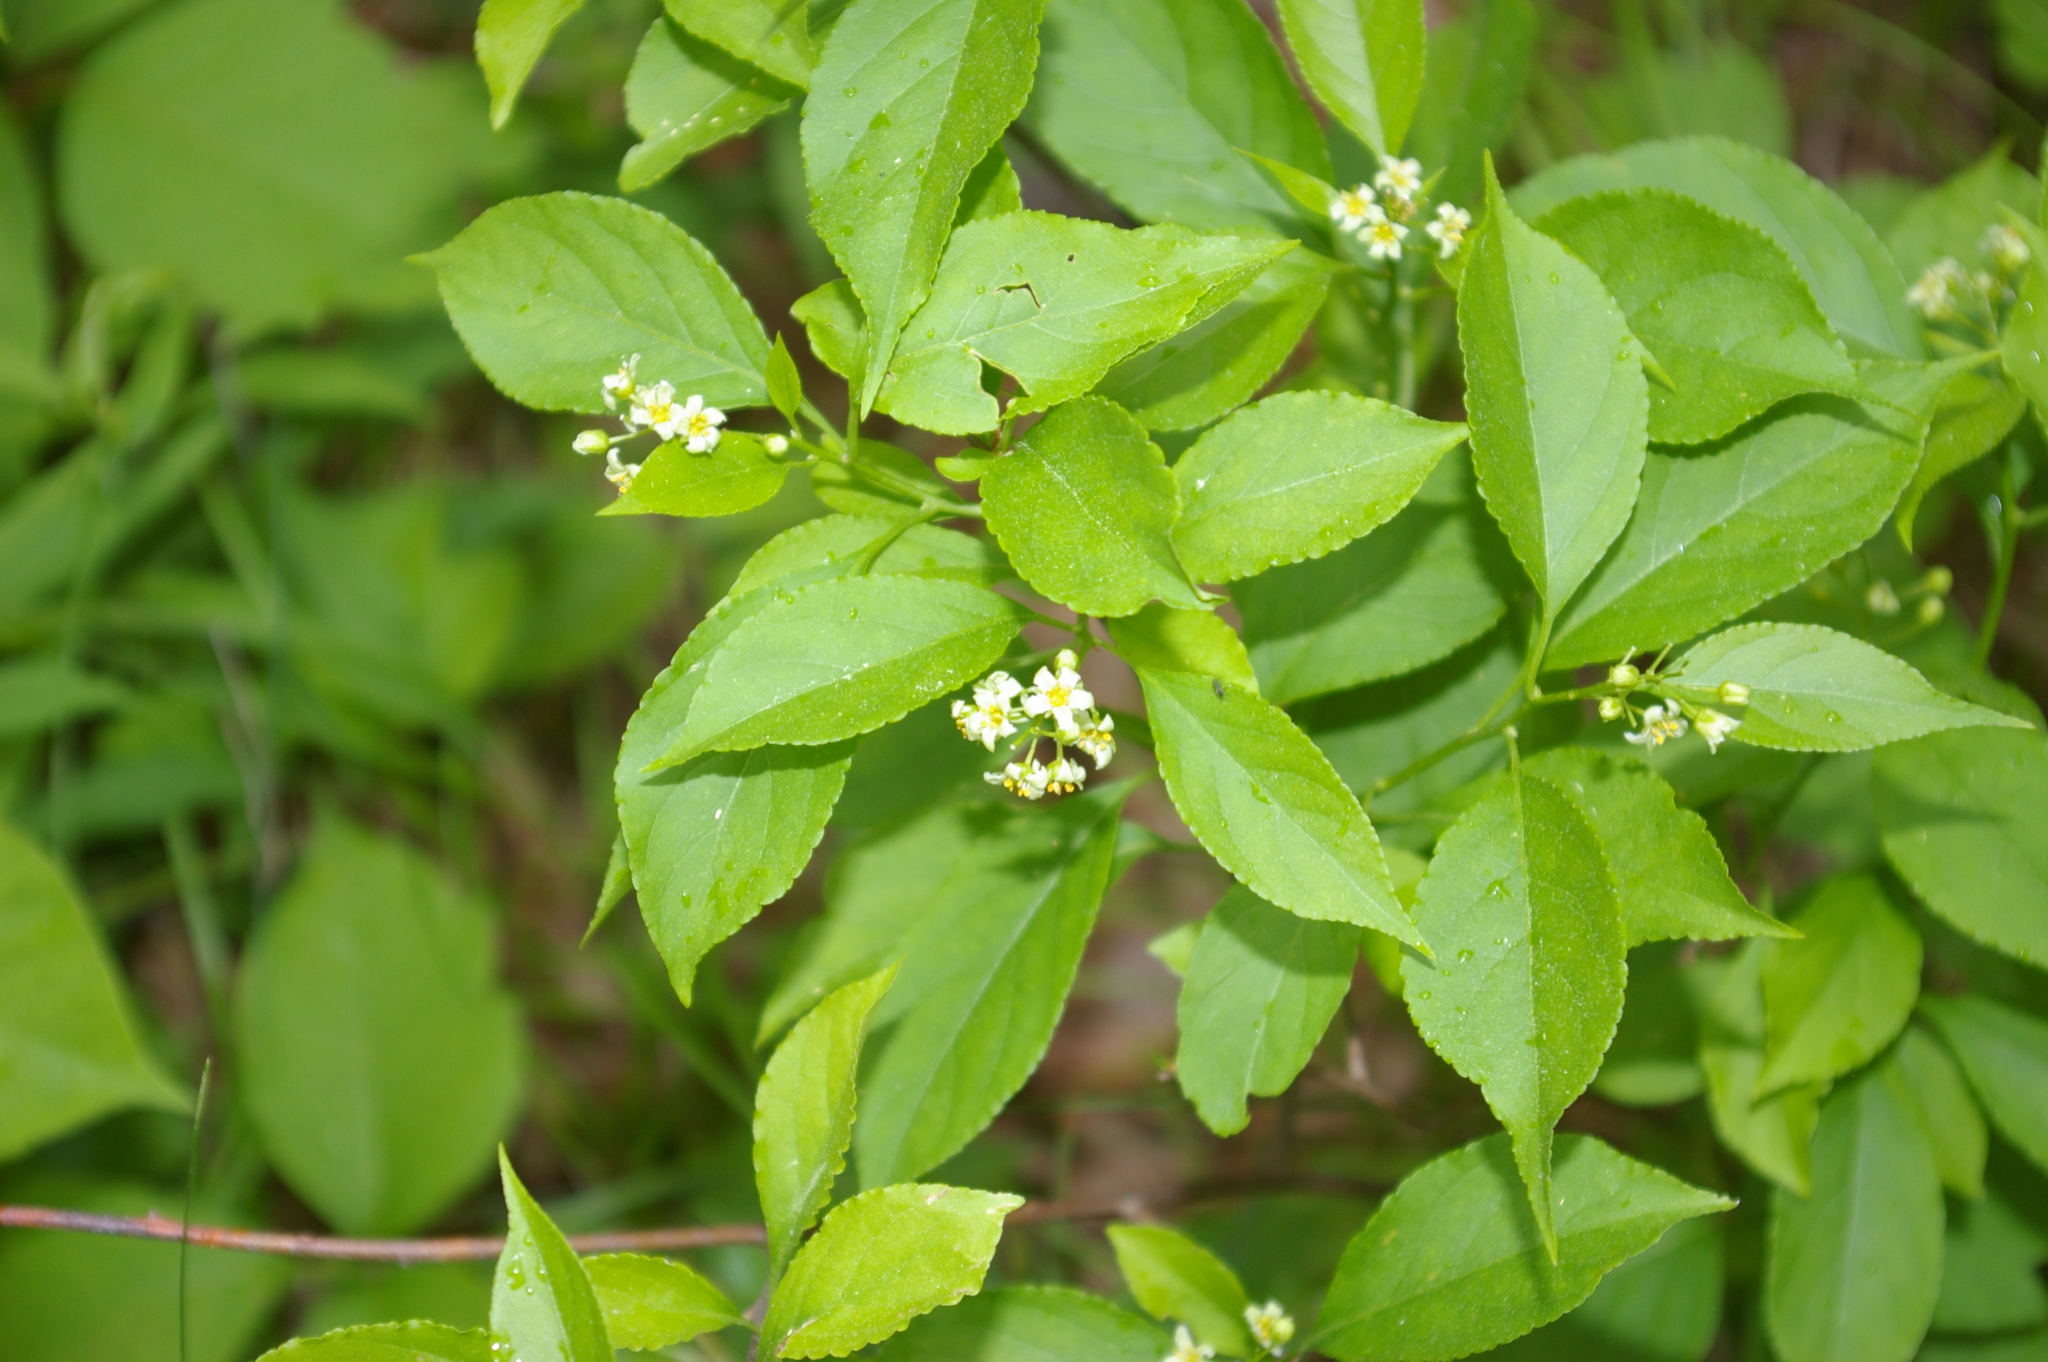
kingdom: Plantae
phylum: Tracheophyta
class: Magnoliopsida
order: Celastrales
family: Celastraceae
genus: Celastrus
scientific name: Celastrus scandens
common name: American bittersweet
